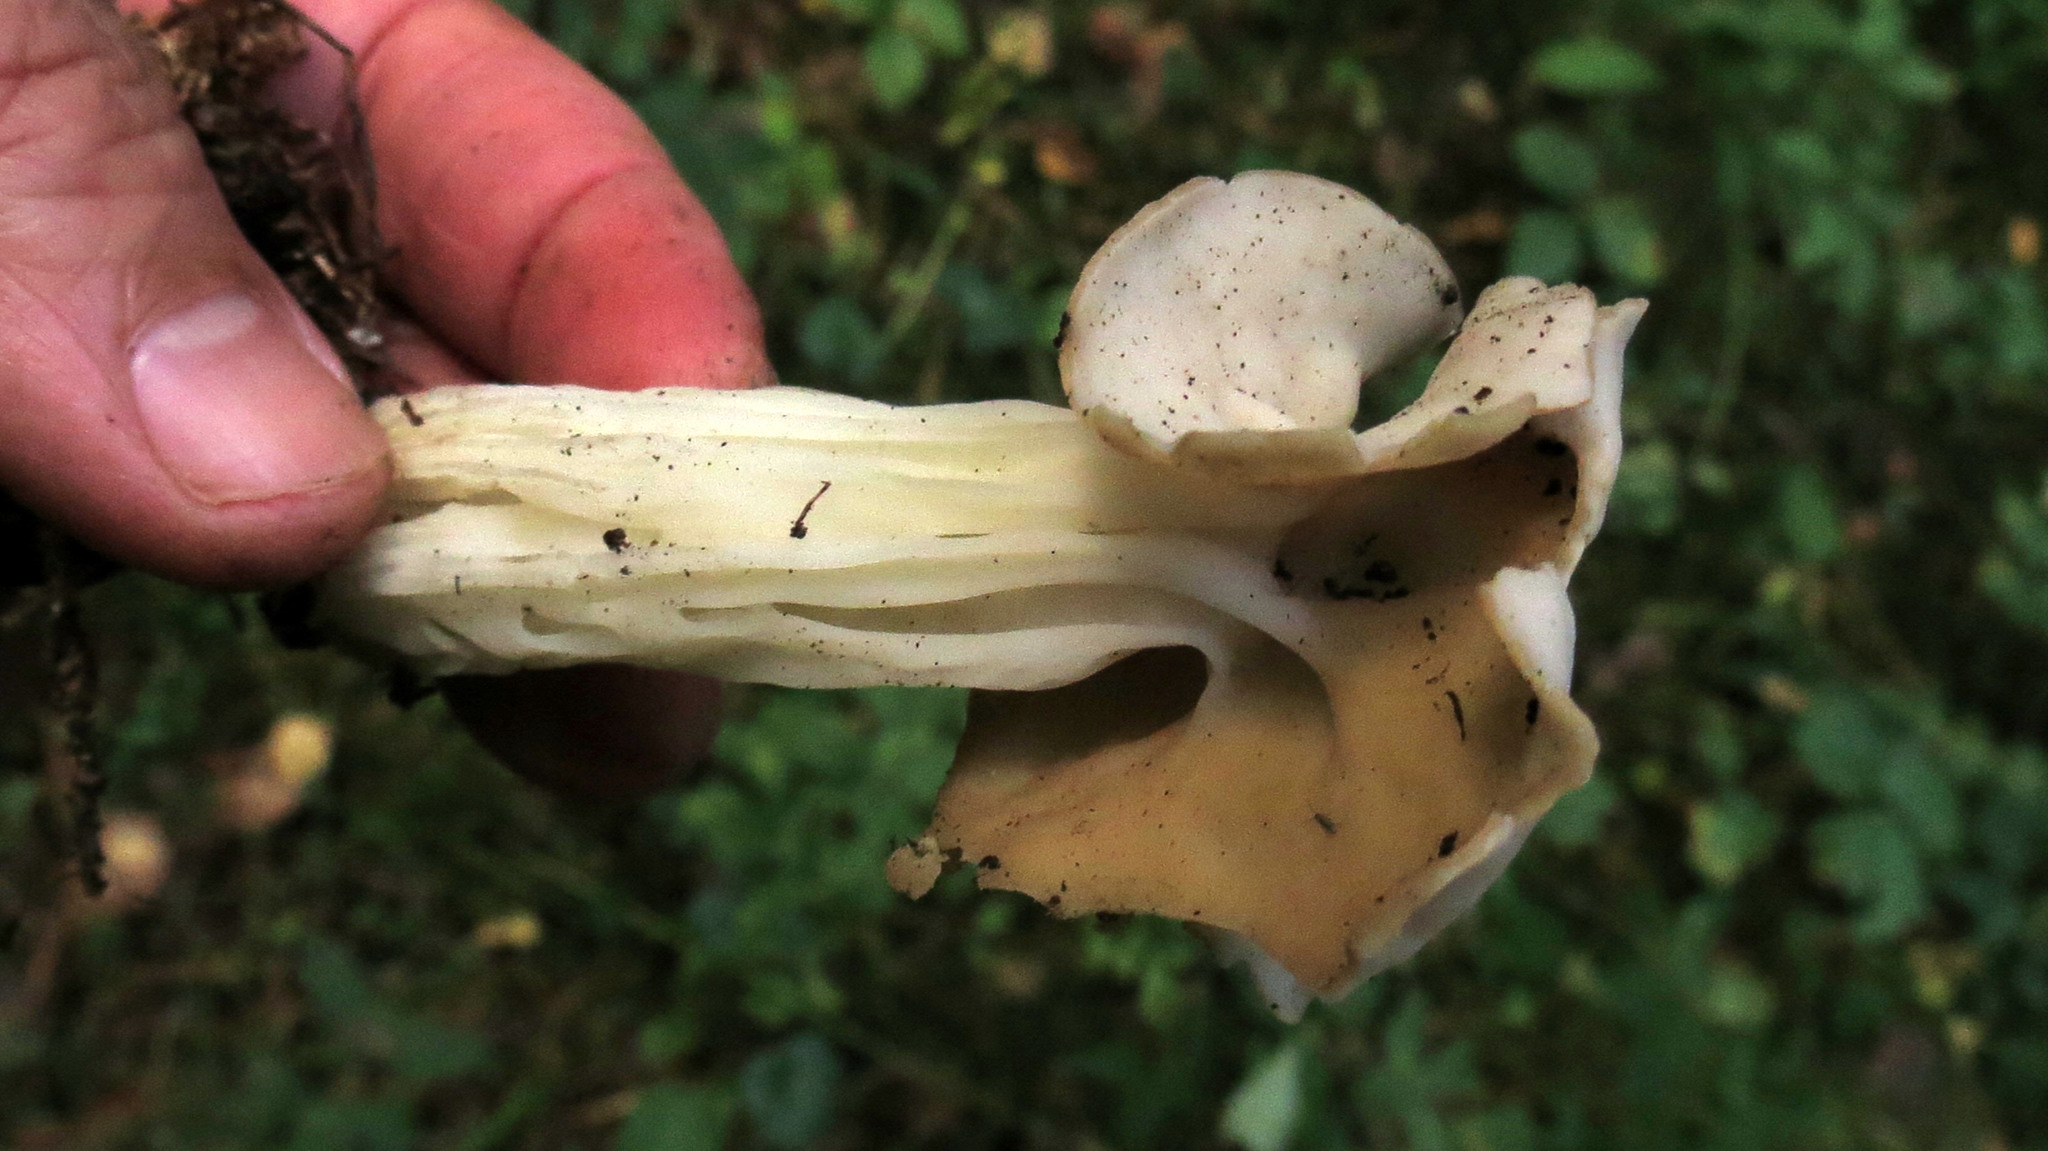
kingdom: Fungi
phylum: Ascomycota
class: Pezizomycetes
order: Pezizales
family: Helvellaceae
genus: Helvella
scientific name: Helvella crispa
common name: White saddle
